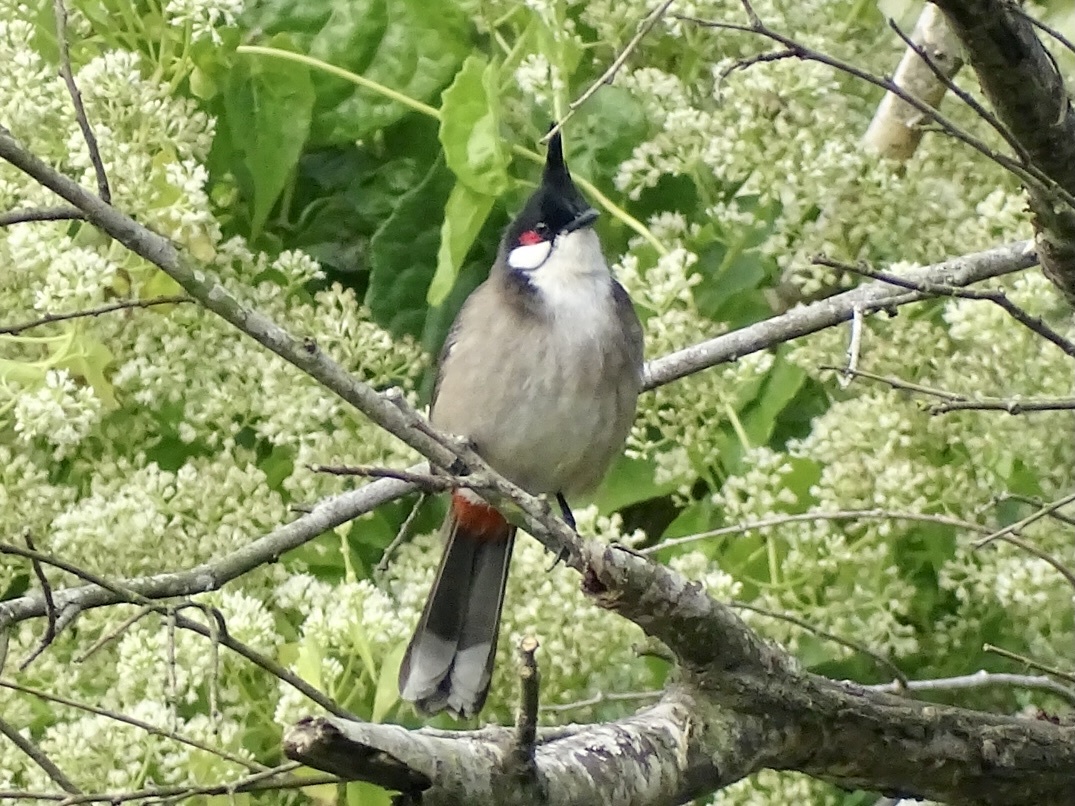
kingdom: Animalia
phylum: Chordata
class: Aves
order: Passeriformes
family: Pycnonotidae
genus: Pycnonotus
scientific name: Pycnonotus jocosus
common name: Red-whiskered bulbul
